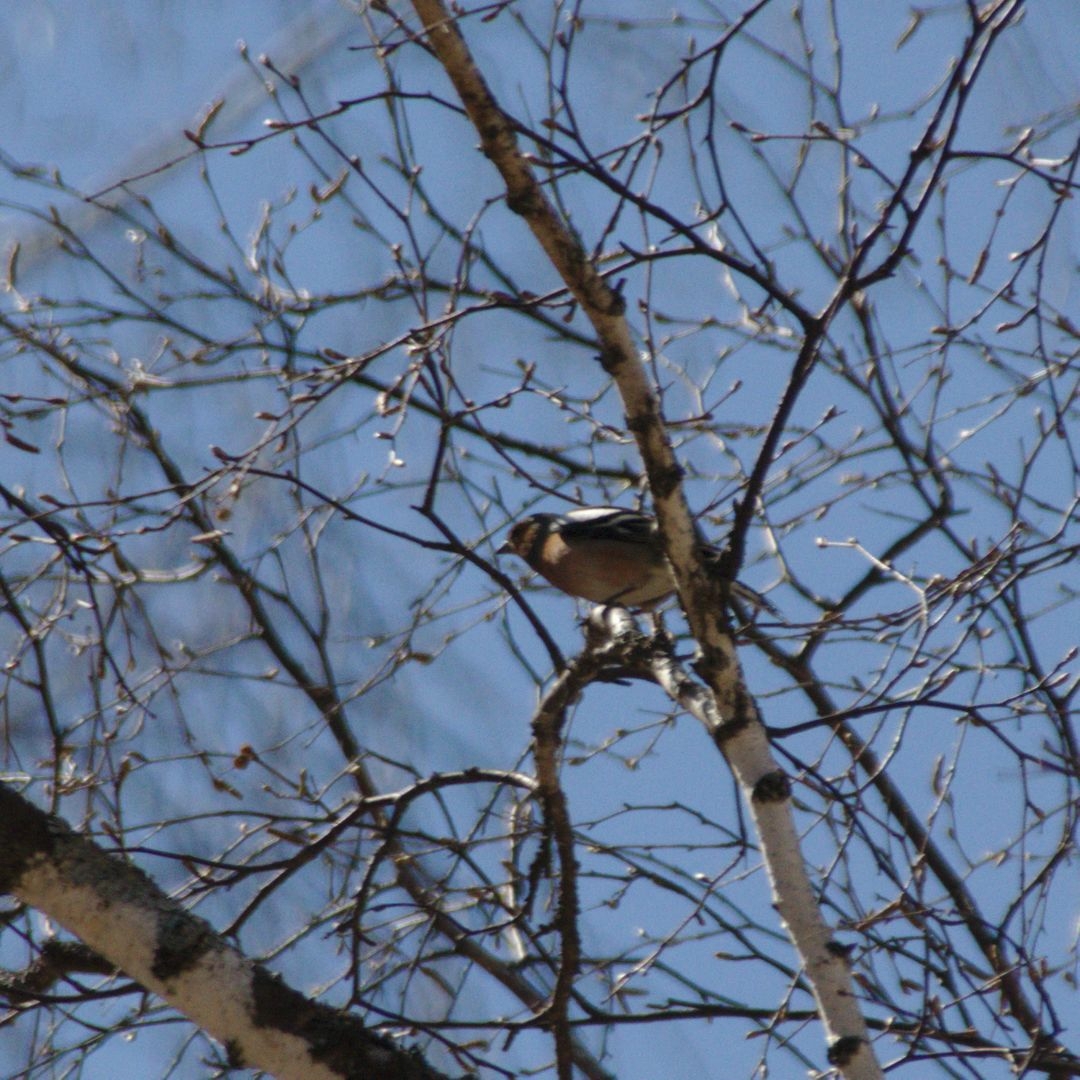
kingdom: Animalia
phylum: Chordata
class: Aves
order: Passeriformes
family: Fringillidae
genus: Fringilla
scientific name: Fringilla coelebs
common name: Common chaffinch
